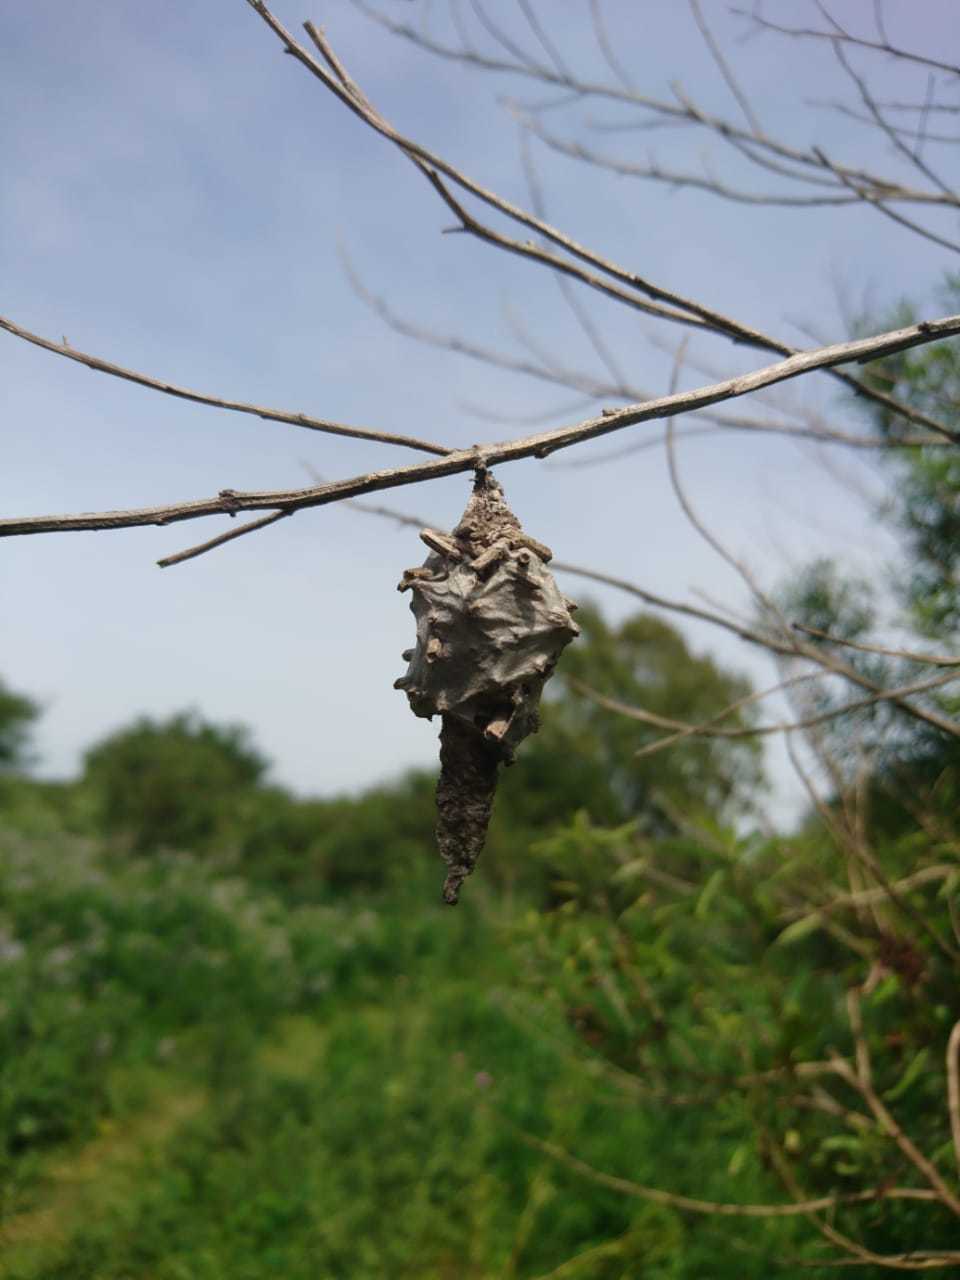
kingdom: Animalia
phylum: Arthropoda
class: Insecta
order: Lepidoptera
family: Psychidae
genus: Oiketicus
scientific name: Oiketicus
